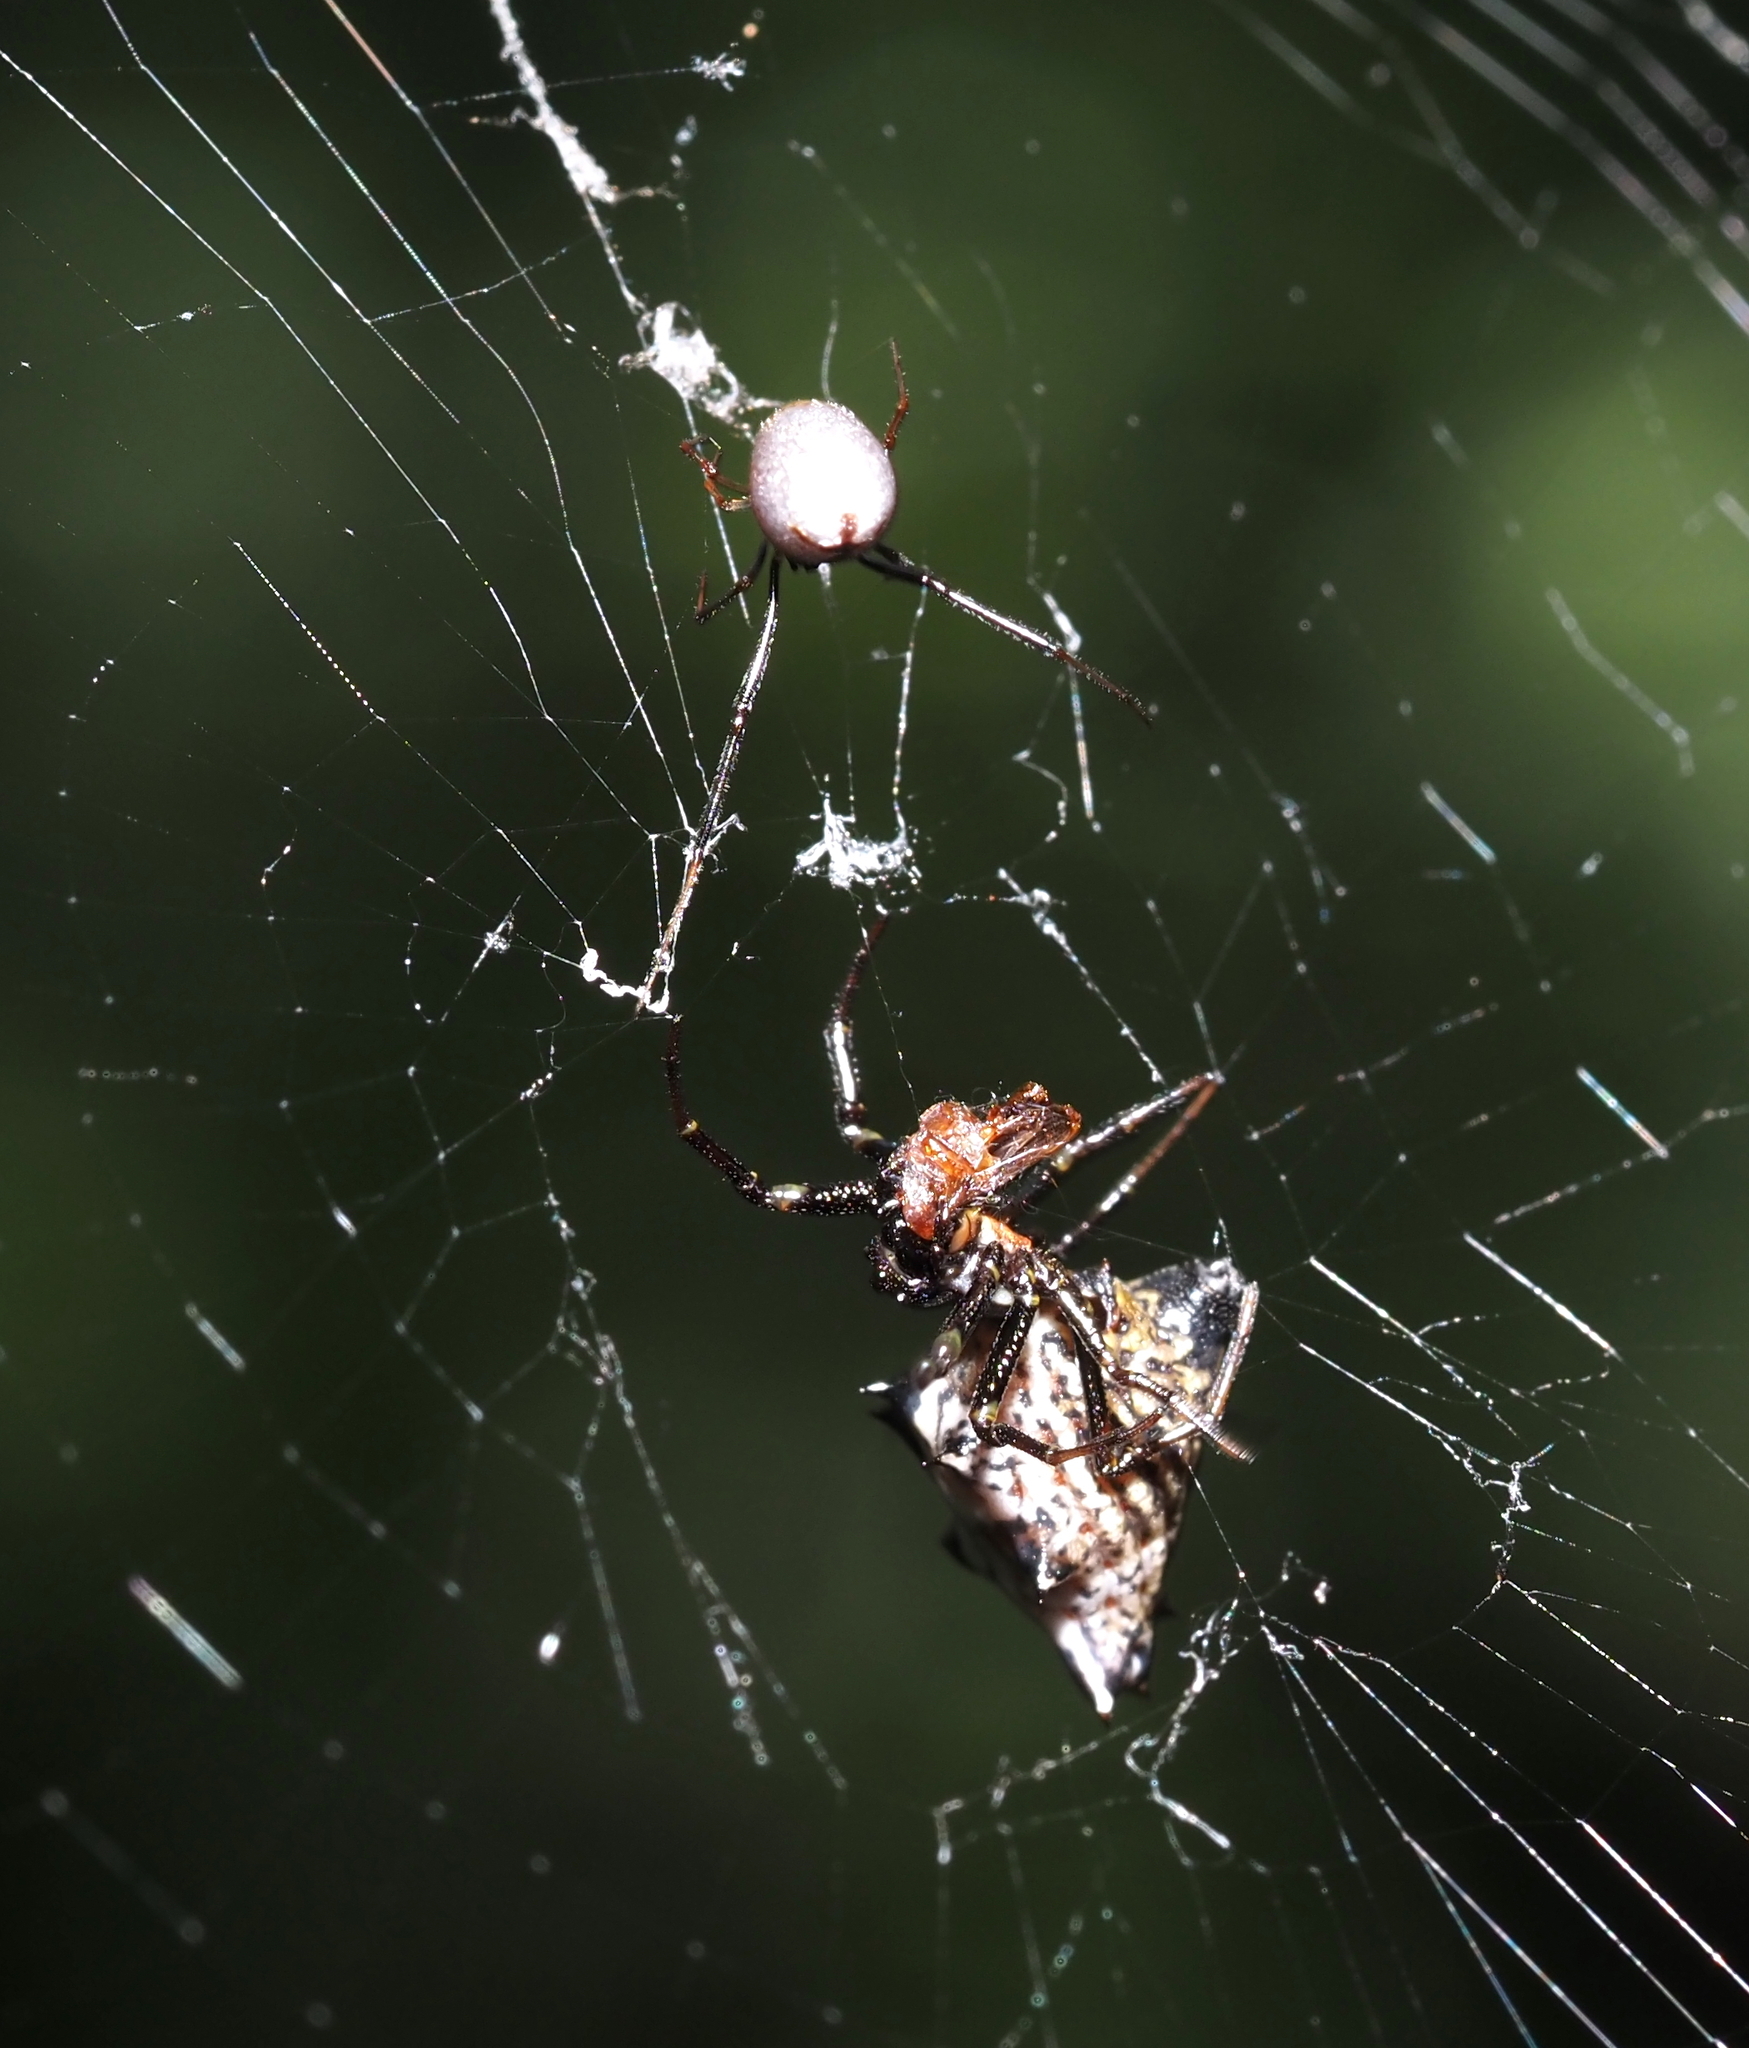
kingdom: Animalia
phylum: Arthropoda
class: Arachnida
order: Araneae
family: Theridiidae
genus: Argyrodes
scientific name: Argyrodes elevatus
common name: Cobweb spiders
